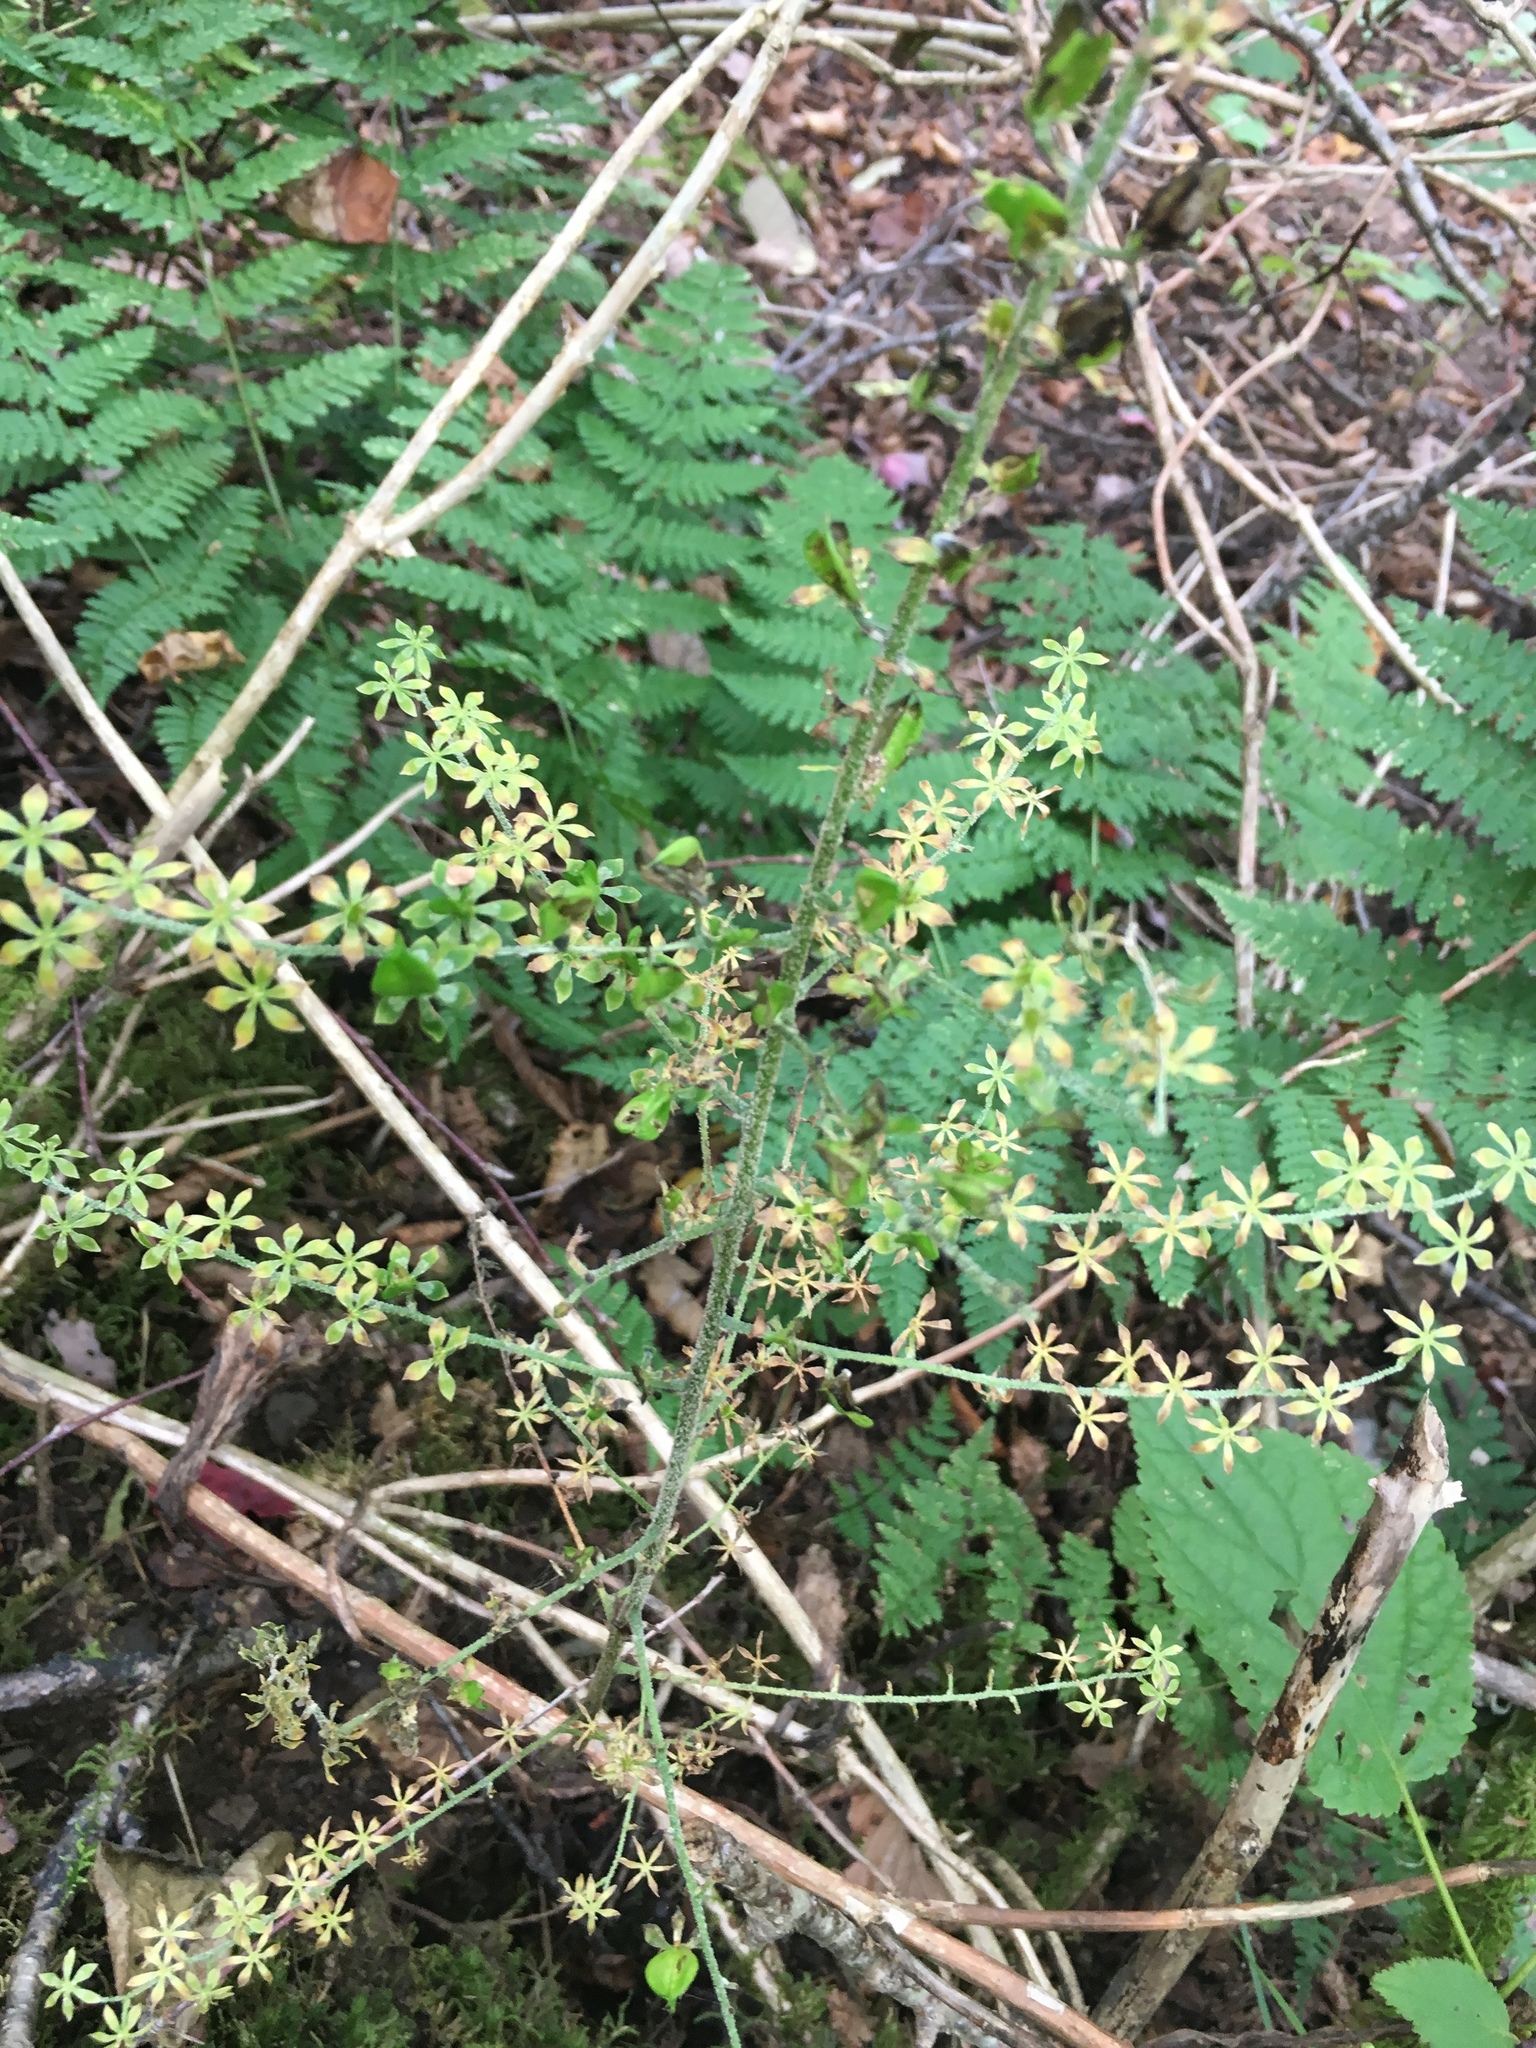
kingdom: Plantae
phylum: Tracheophyta
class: Liliopsida
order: Liliales
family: Melanthiaceae
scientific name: Melanthiaceae
